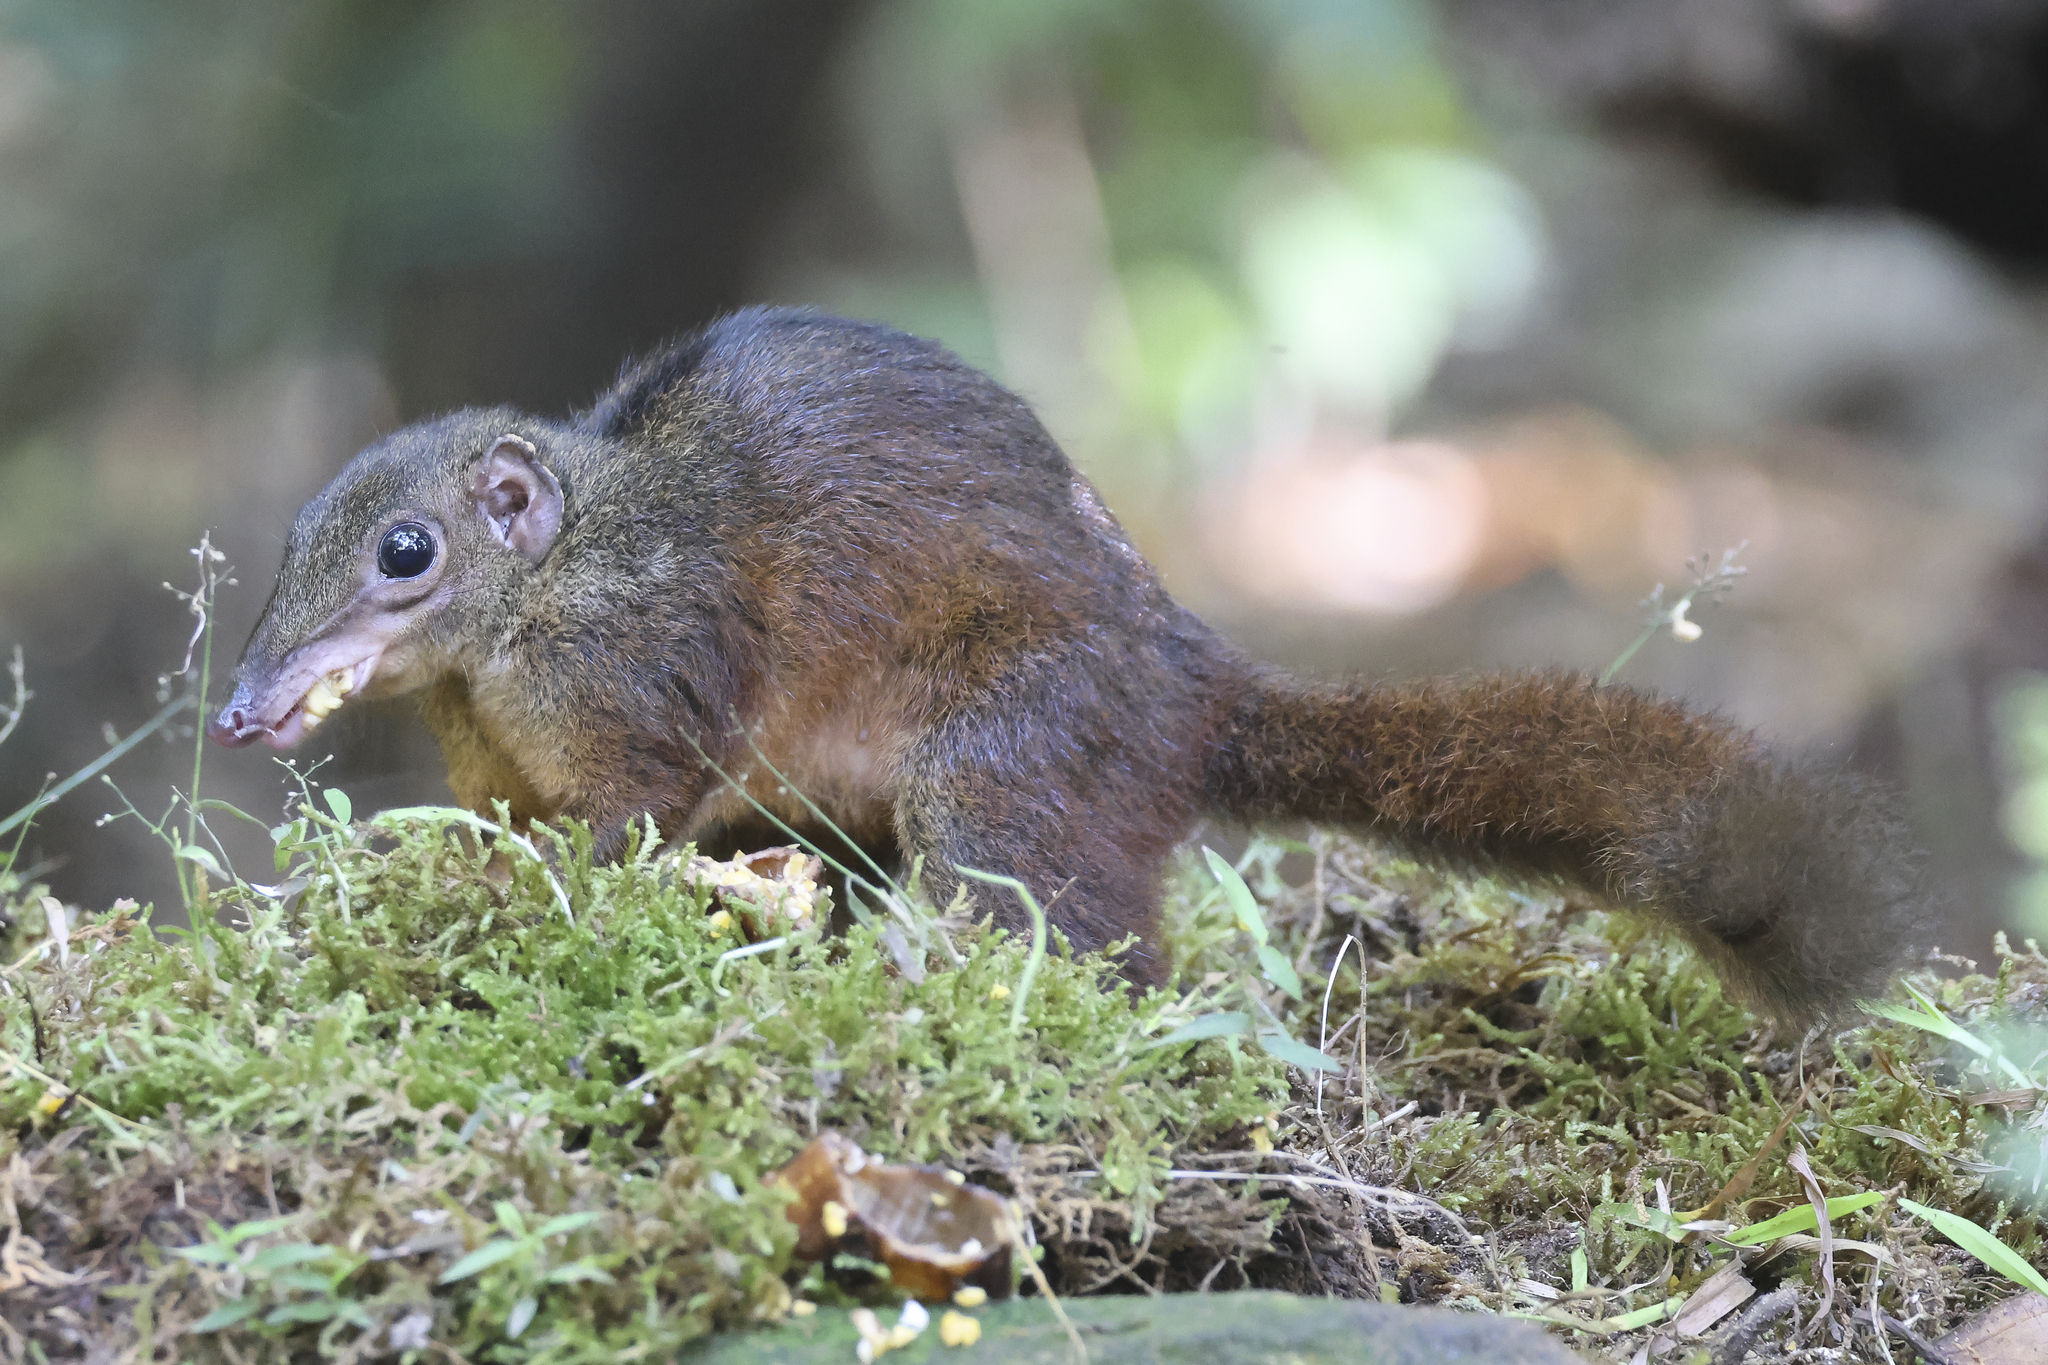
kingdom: Animalia
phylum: Chordata
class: Mammalia
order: Scandentia
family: Tupaiidae
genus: Tupaia
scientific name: Tupaia tana
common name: Large treeshrew
